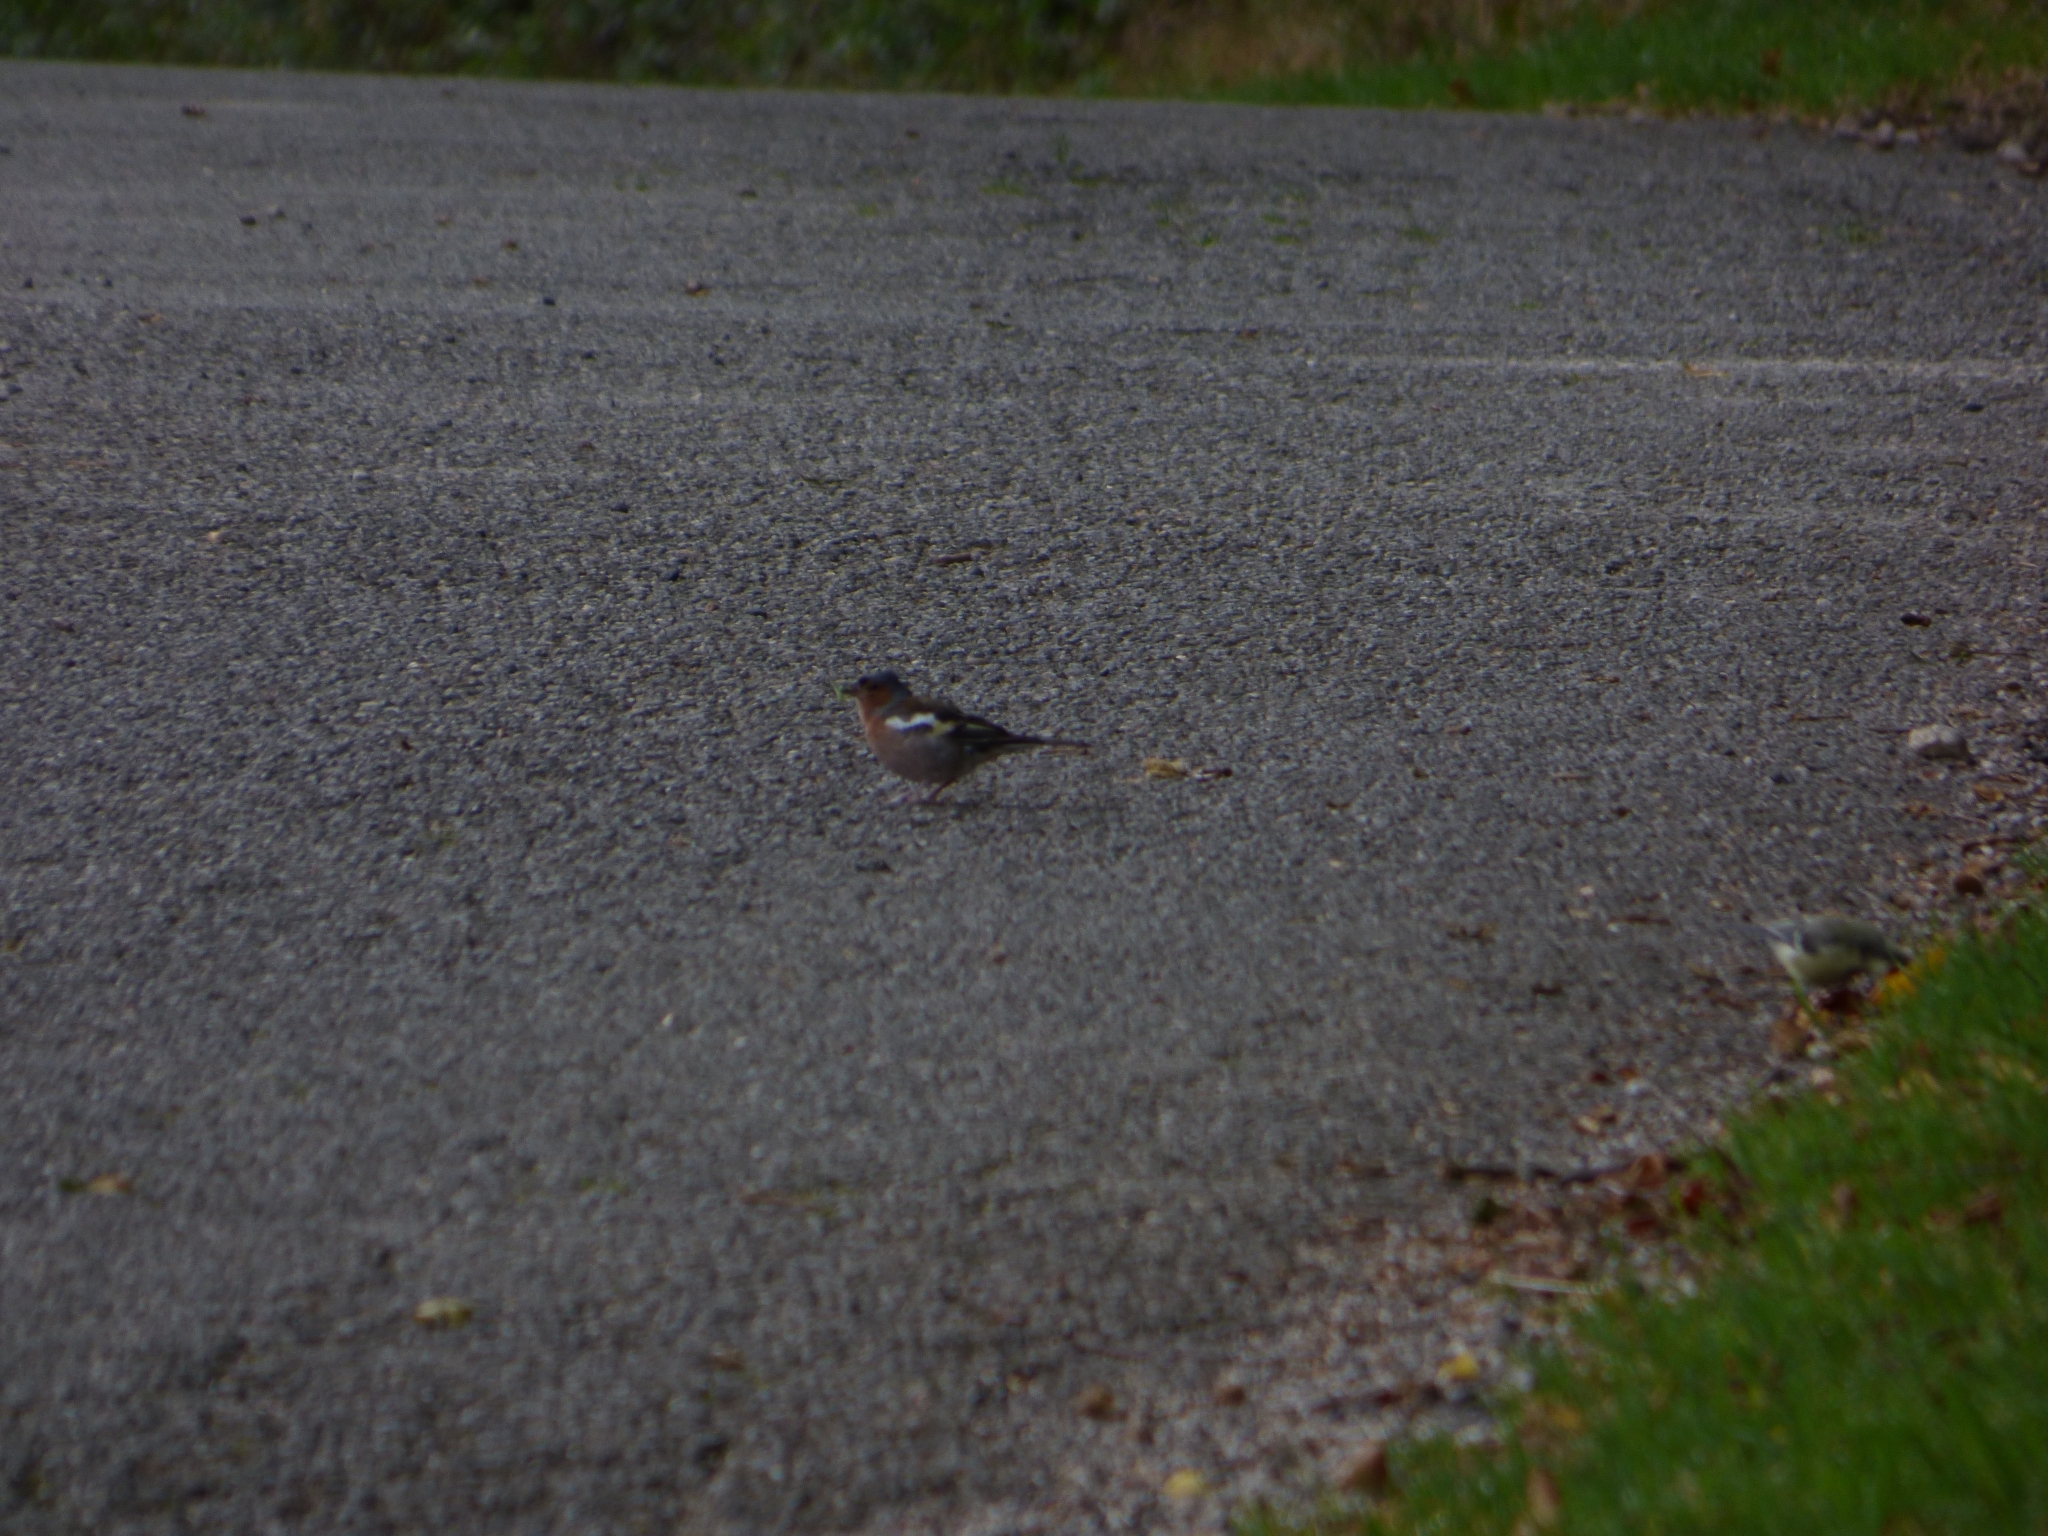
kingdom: Animalia
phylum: Chordata
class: Aves
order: Passeriformes
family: Fringillidae
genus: Fringilla
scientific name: Fringilla coelebs
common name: Common chaffinch
